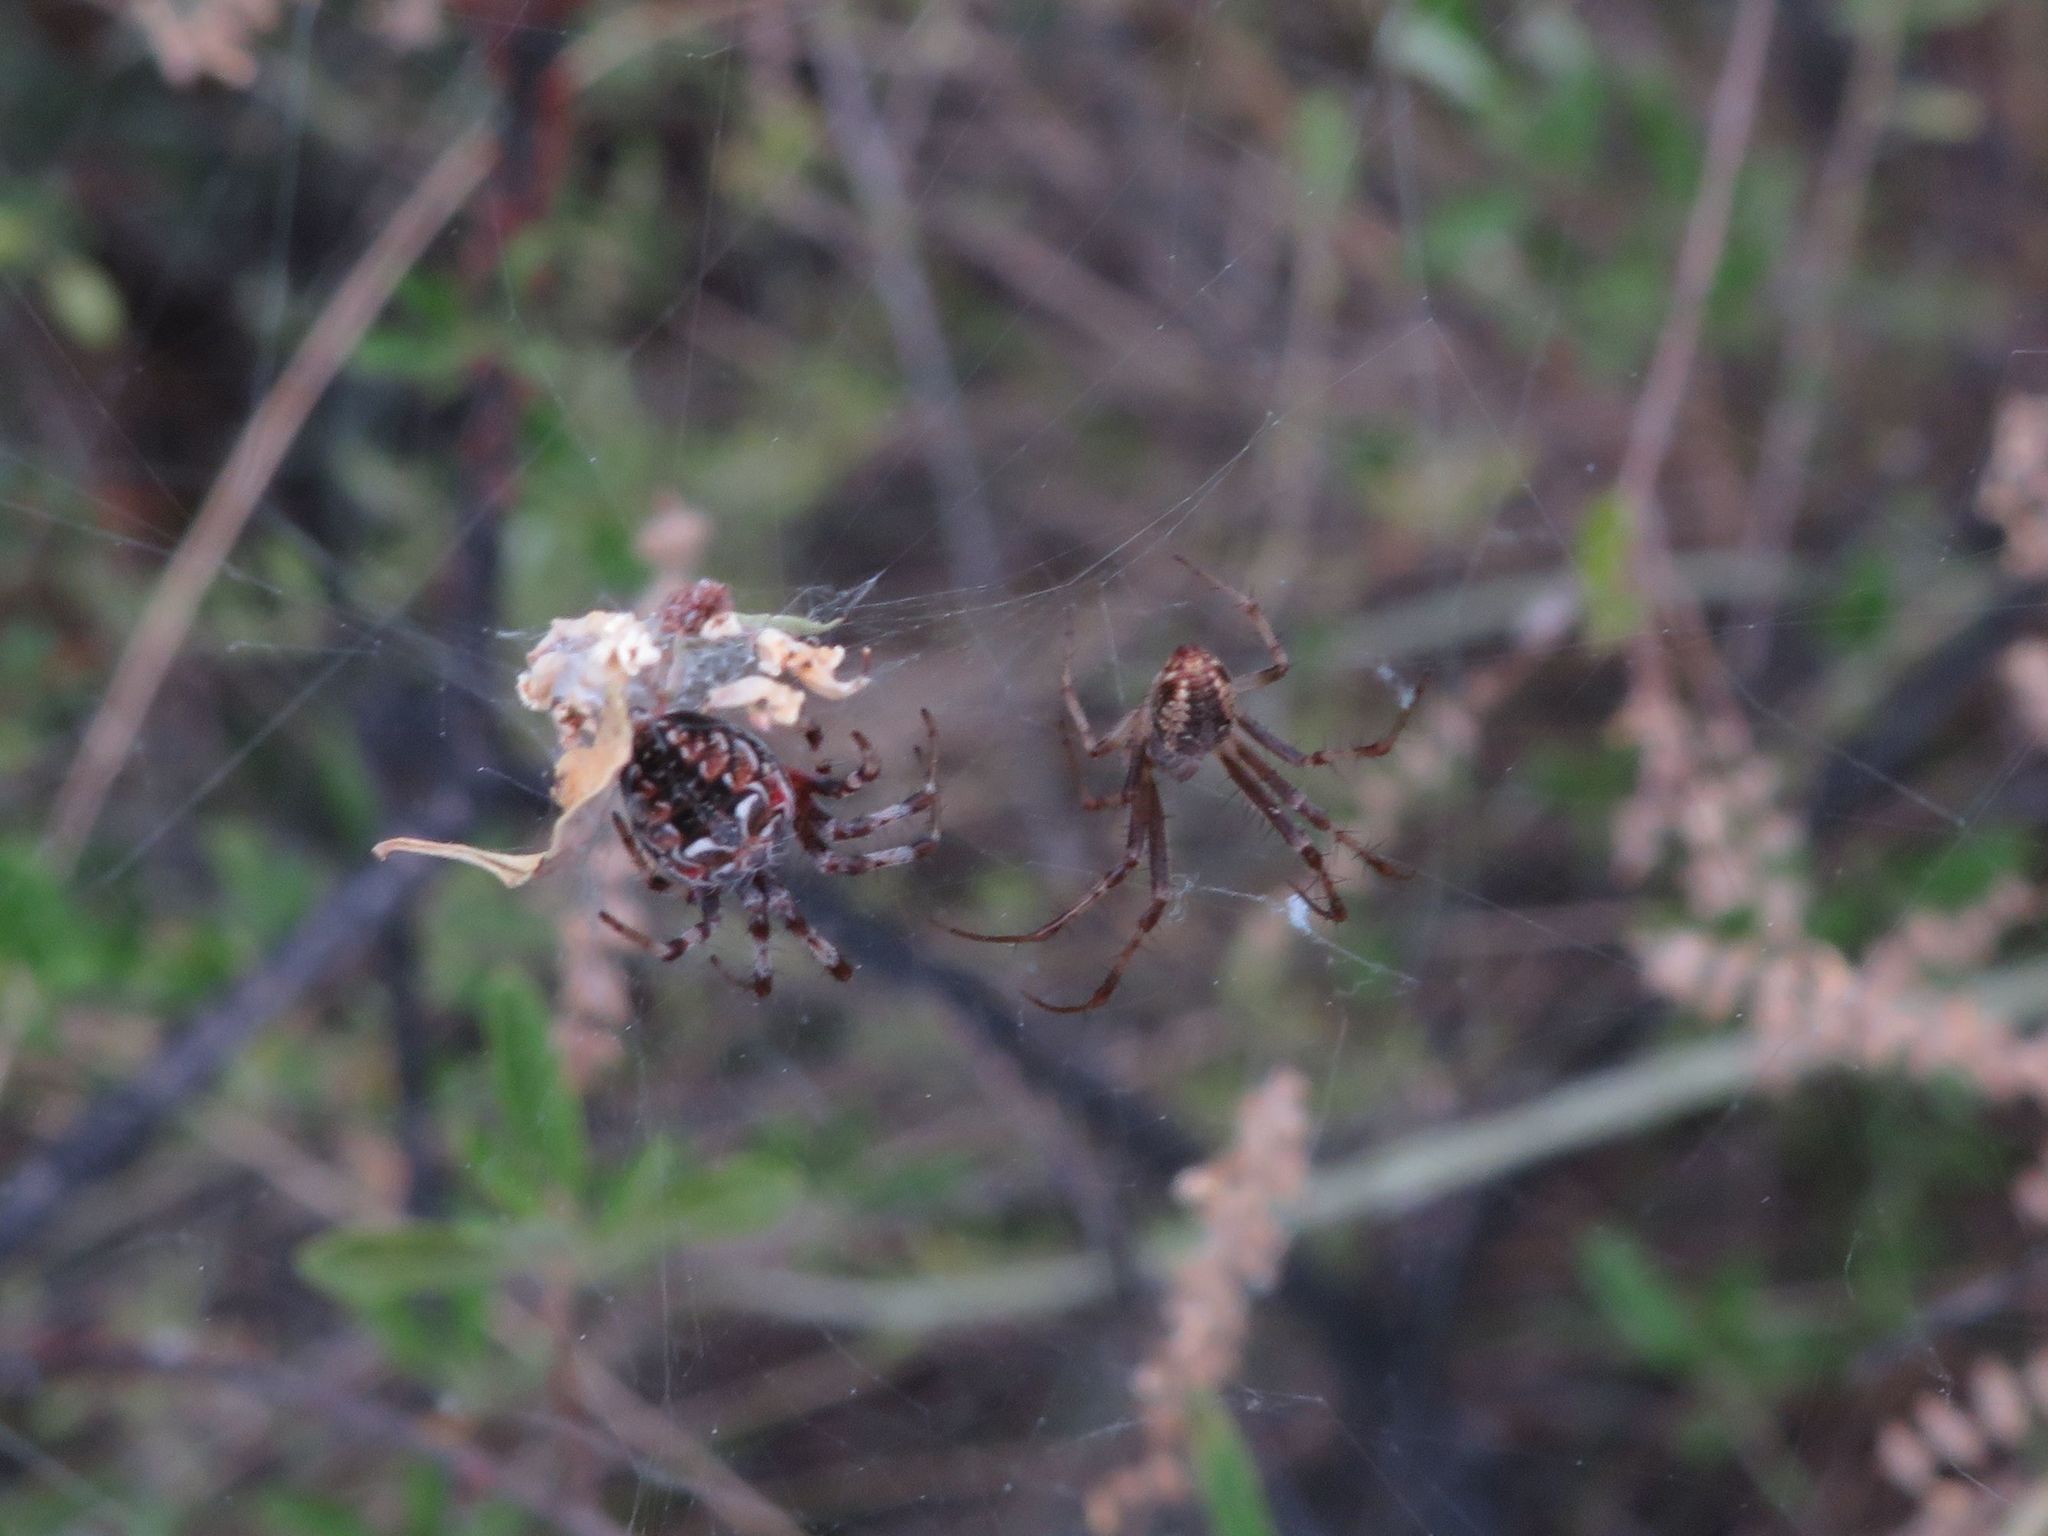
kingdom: Animalia
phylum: Arthropoda
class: Arachnida
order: Araneae
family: Araneidae
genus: Metepeira
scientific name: Metepeira
